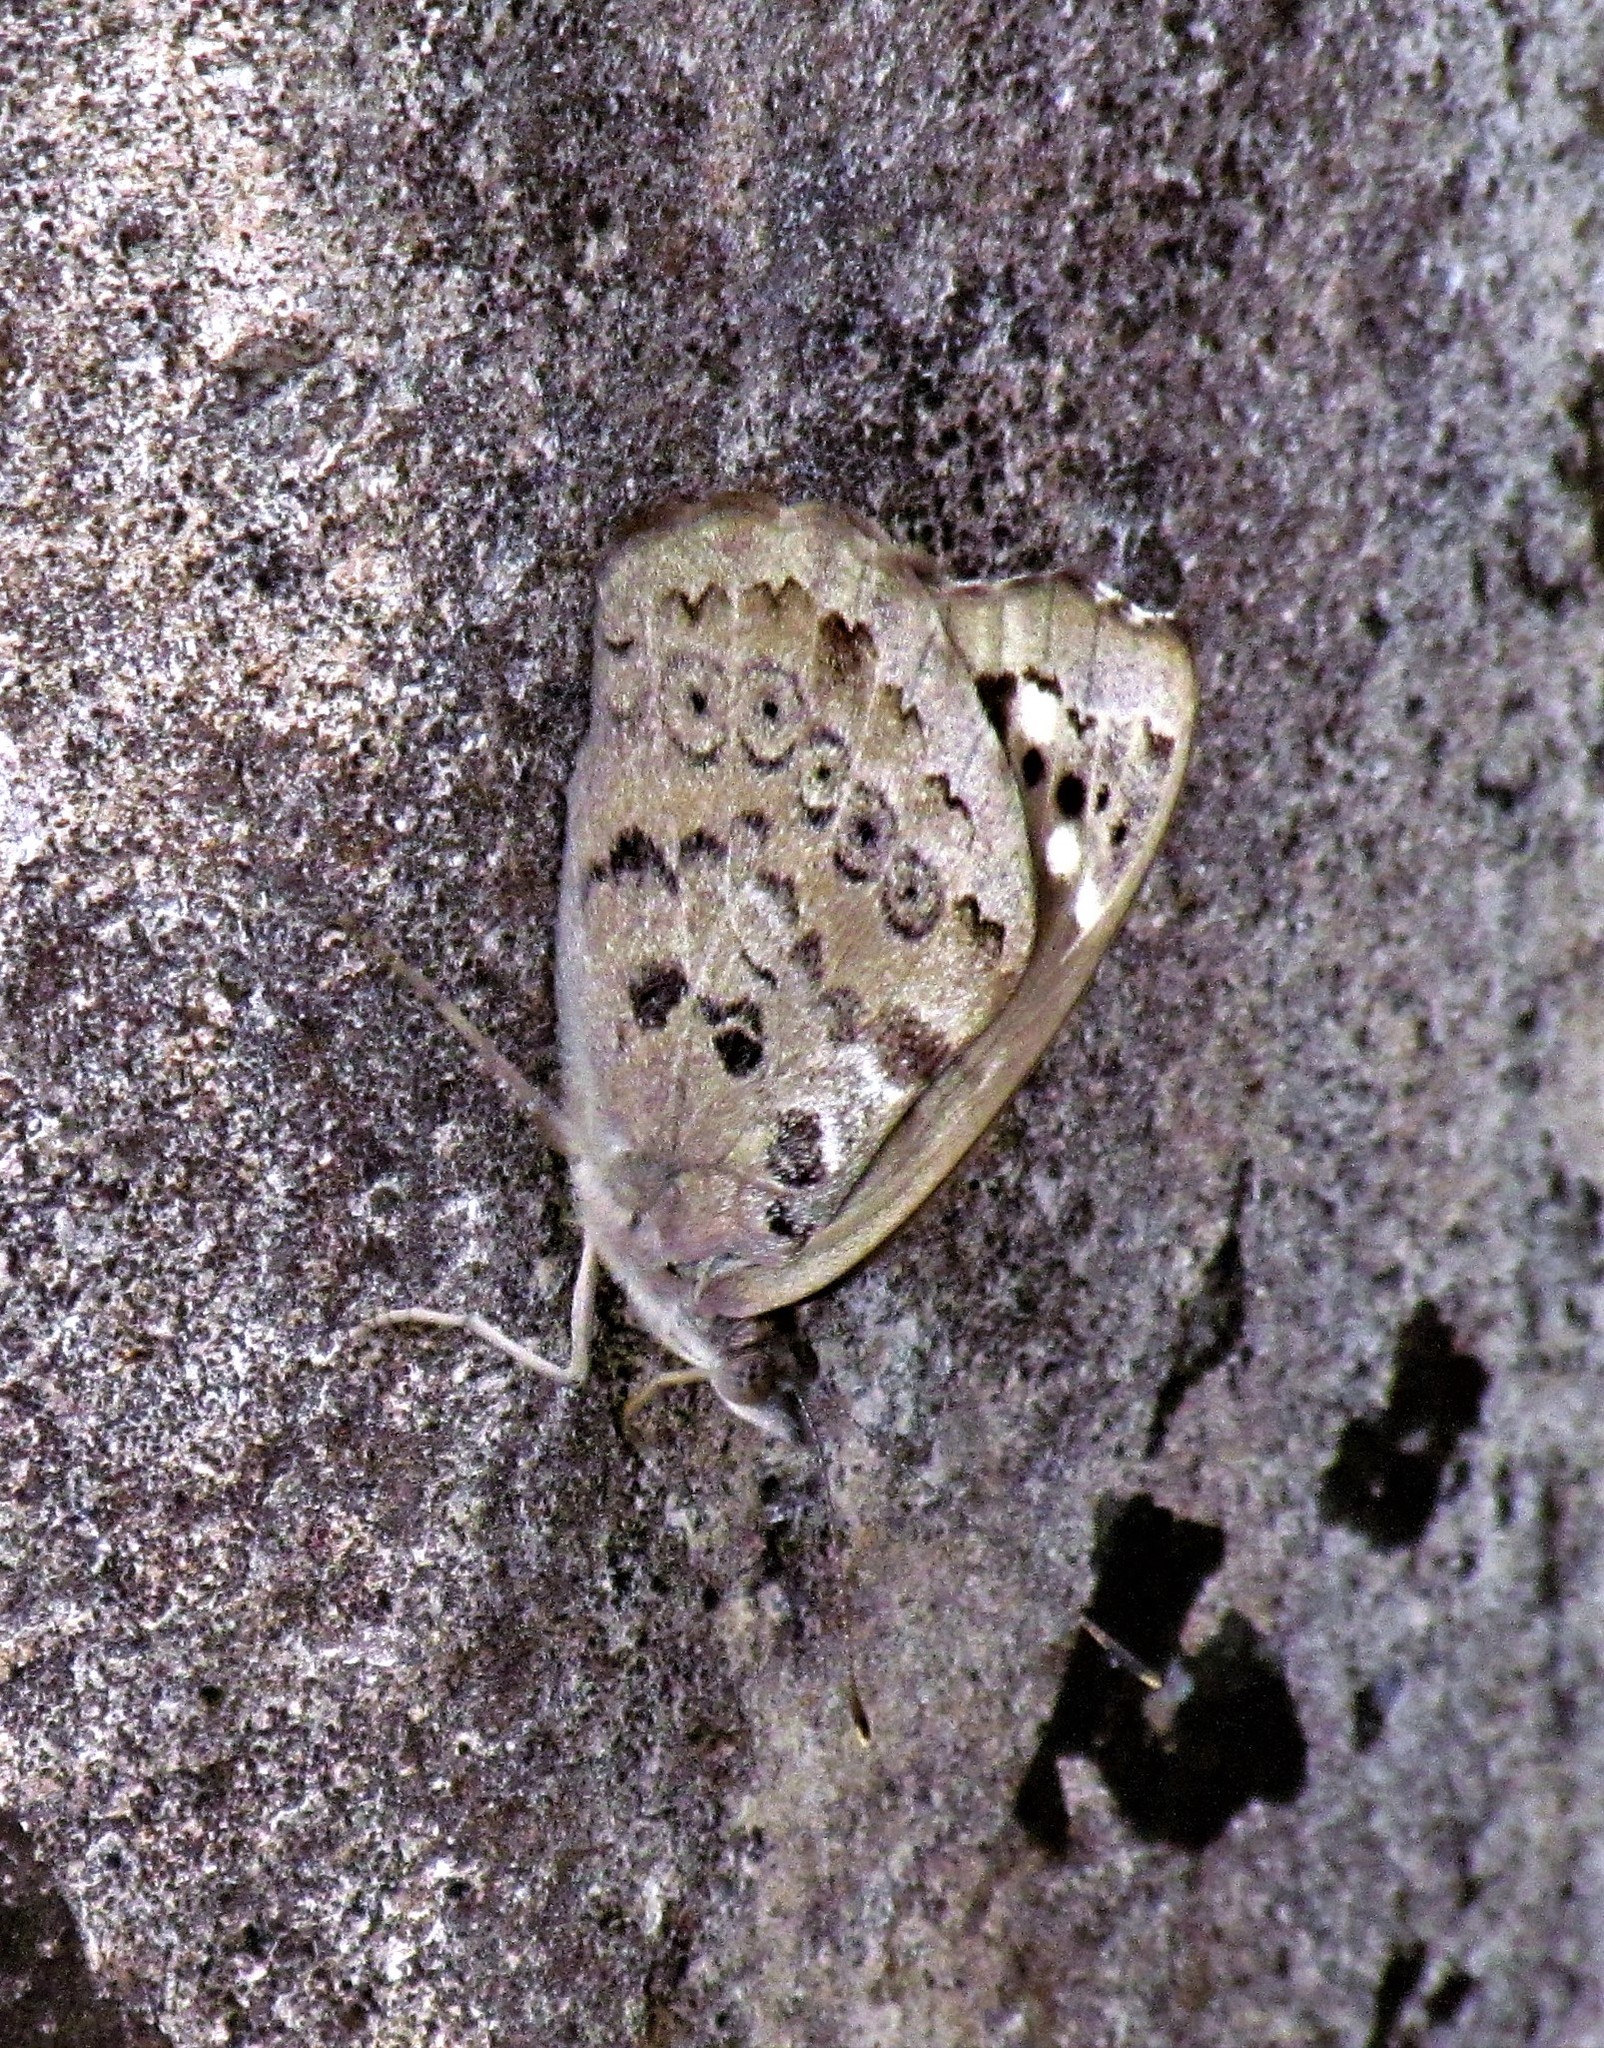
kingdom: Animalia
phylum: Arthropoda
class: Insecta
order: Lepidoptera
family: Nymphalidae
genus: Eunica
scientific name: Eunica tatila
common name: Florida purplewing
